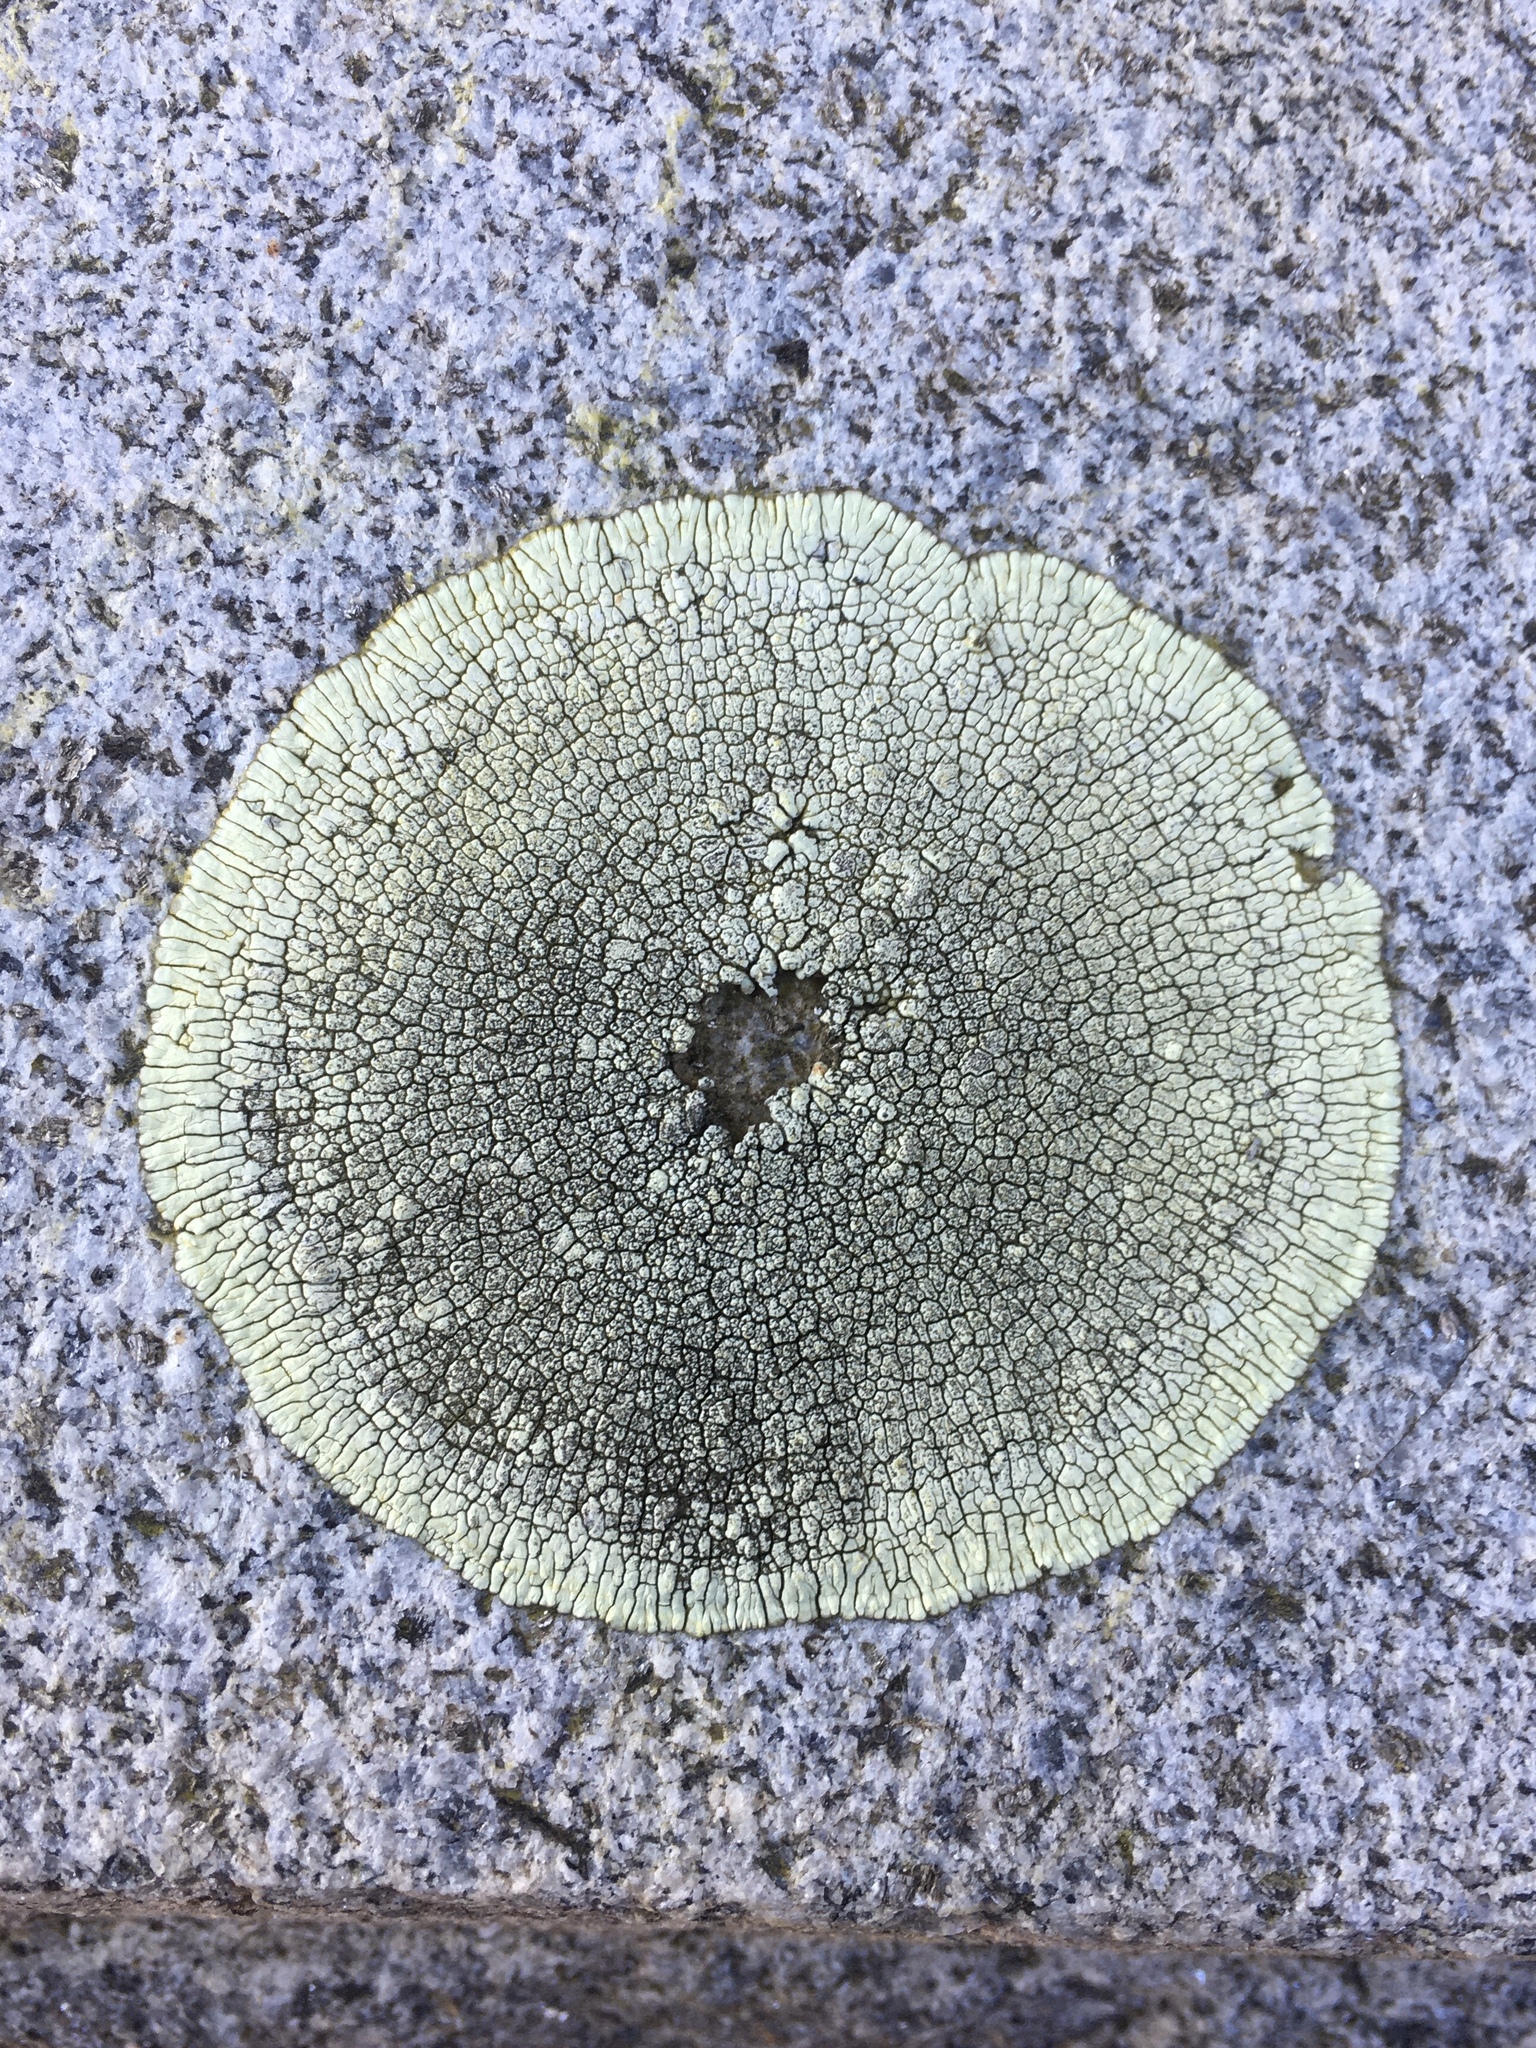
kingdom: Fungi
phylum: Ascomycota
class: Lecanoromycetes
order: Caliciales
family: Caliciaceae
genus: Dimelaena
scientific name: Dimelaena oreina
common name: Golden moonglow lichen
